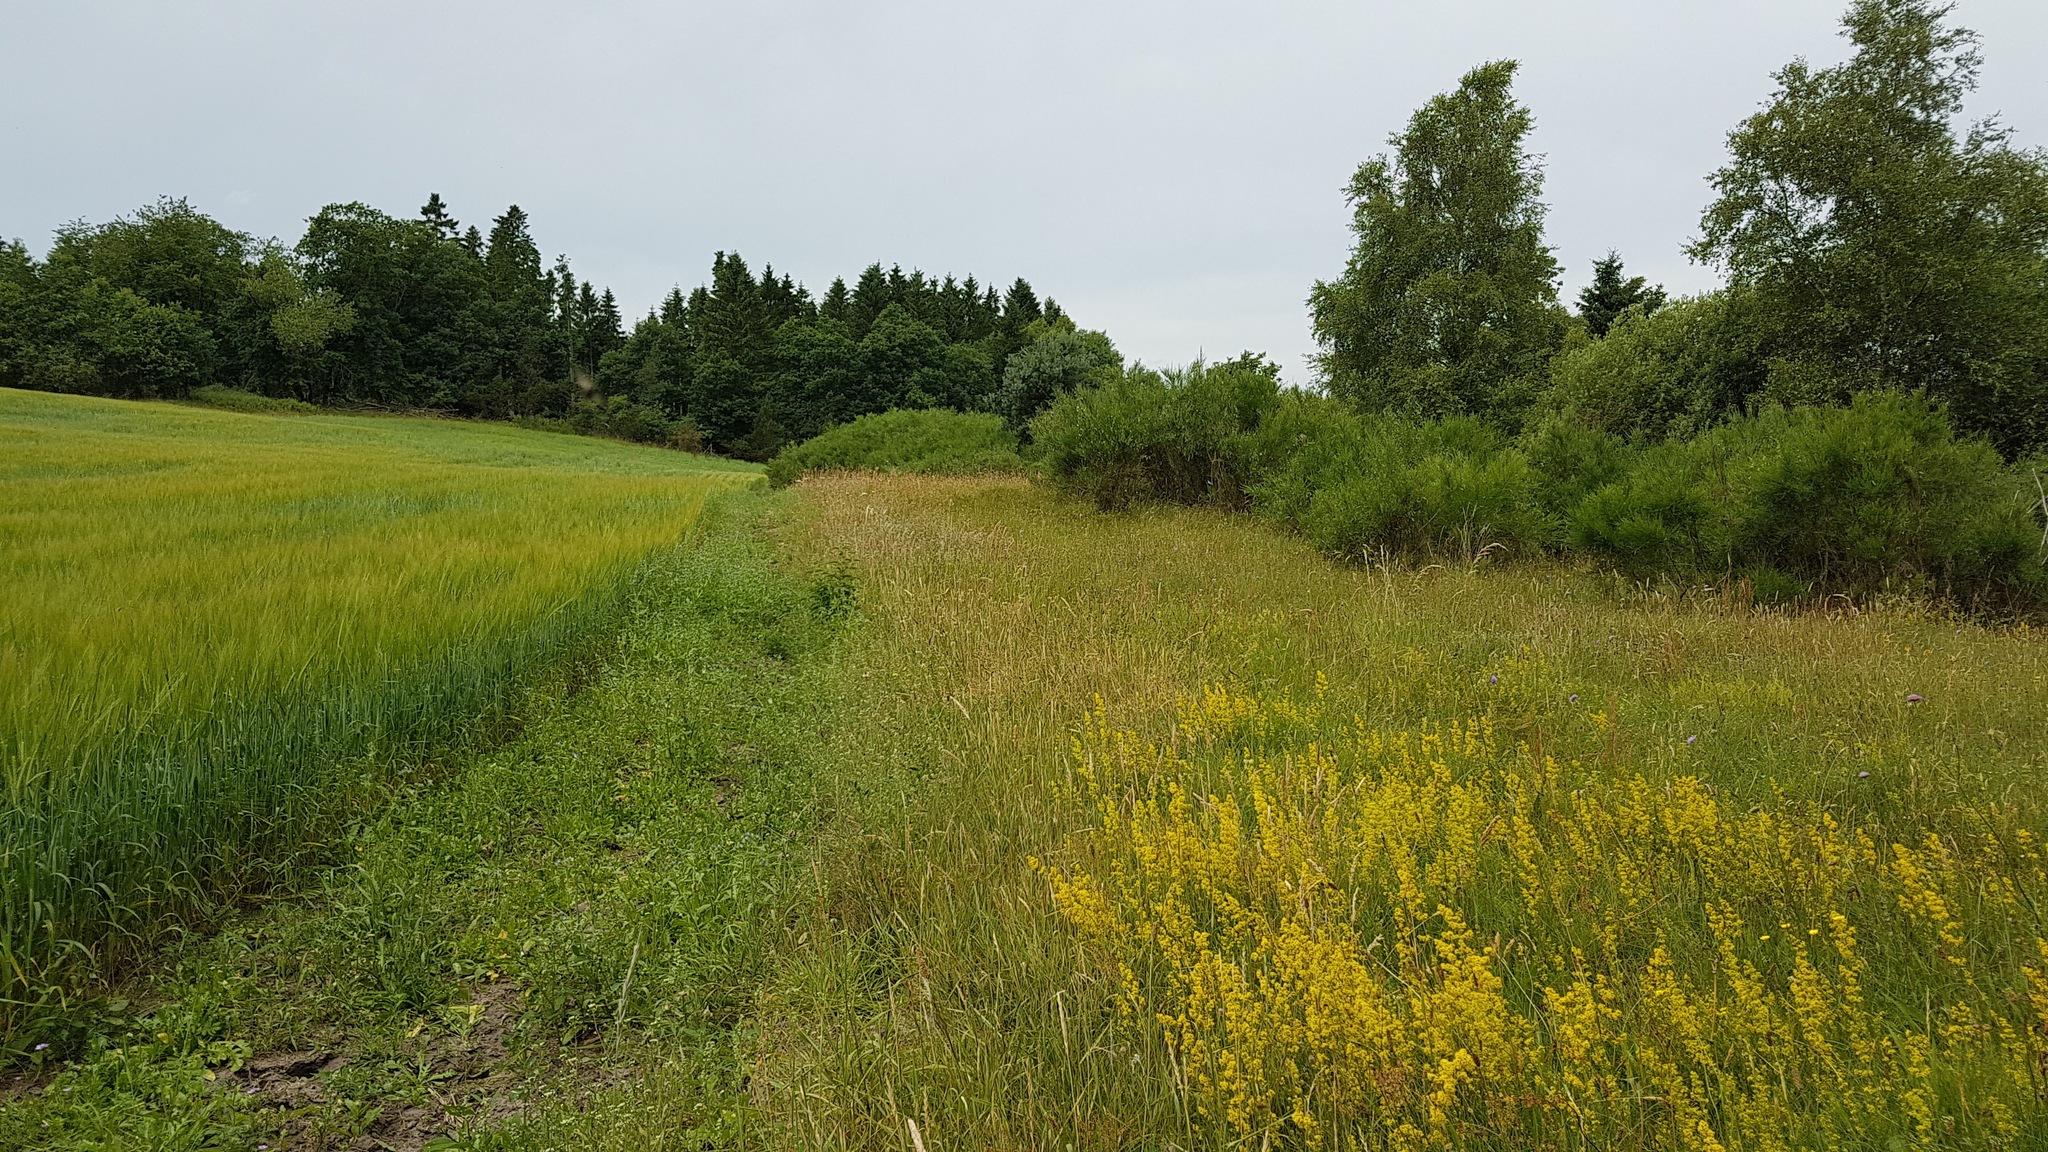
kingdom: Plantae
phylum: Tracheophyta
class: Magnoliopsida
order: Gentianales
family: Rubiaceae
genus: Galium
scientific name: Galium verum
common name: Lady's bedstraw
